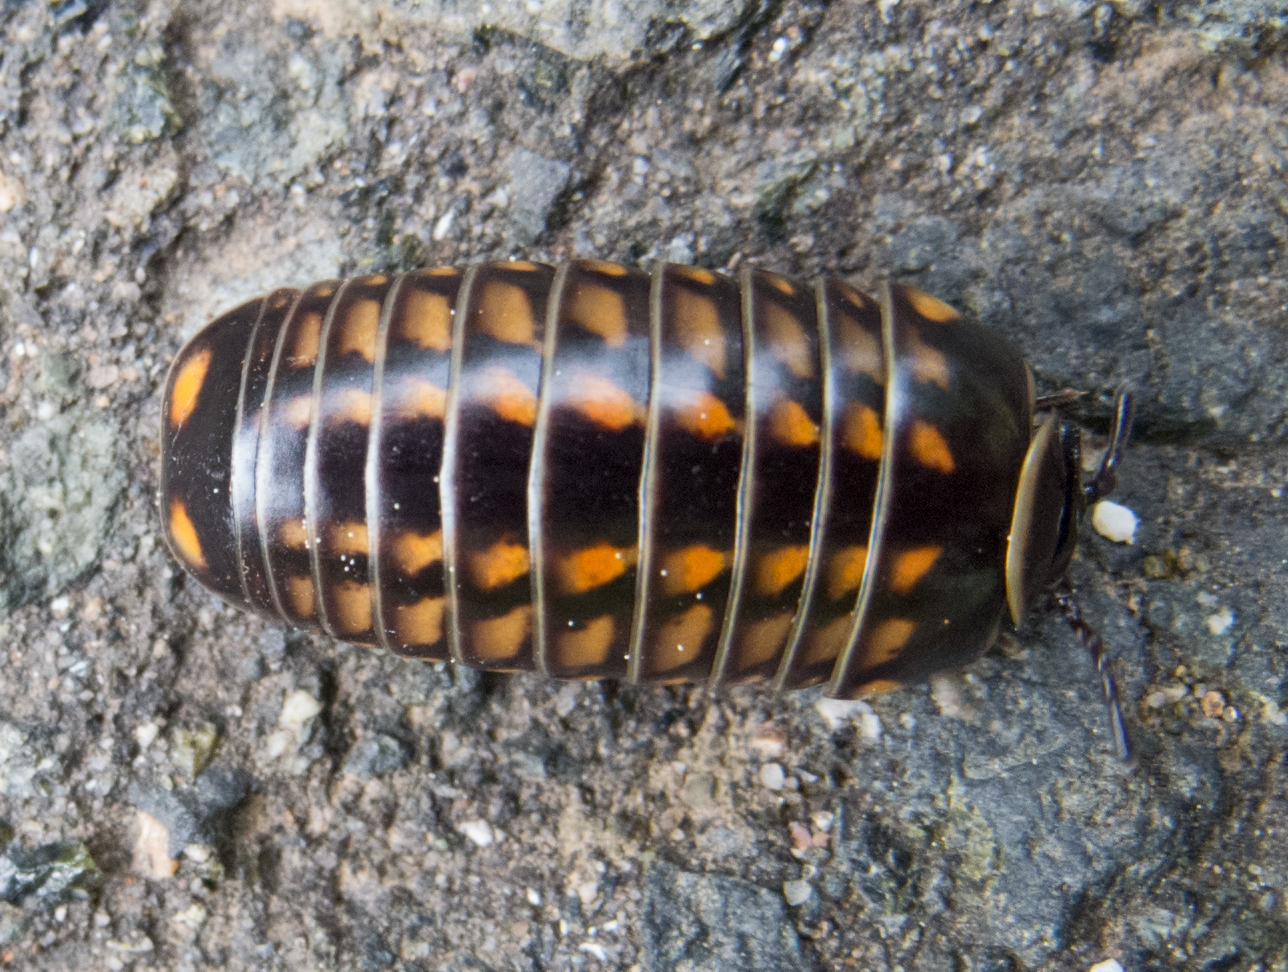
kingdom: Animalia
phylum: Arthropoda
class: Diplopoda
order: Glomerida
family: Glomeridae
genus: Glomeris
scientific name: Glomeris hexasticha
